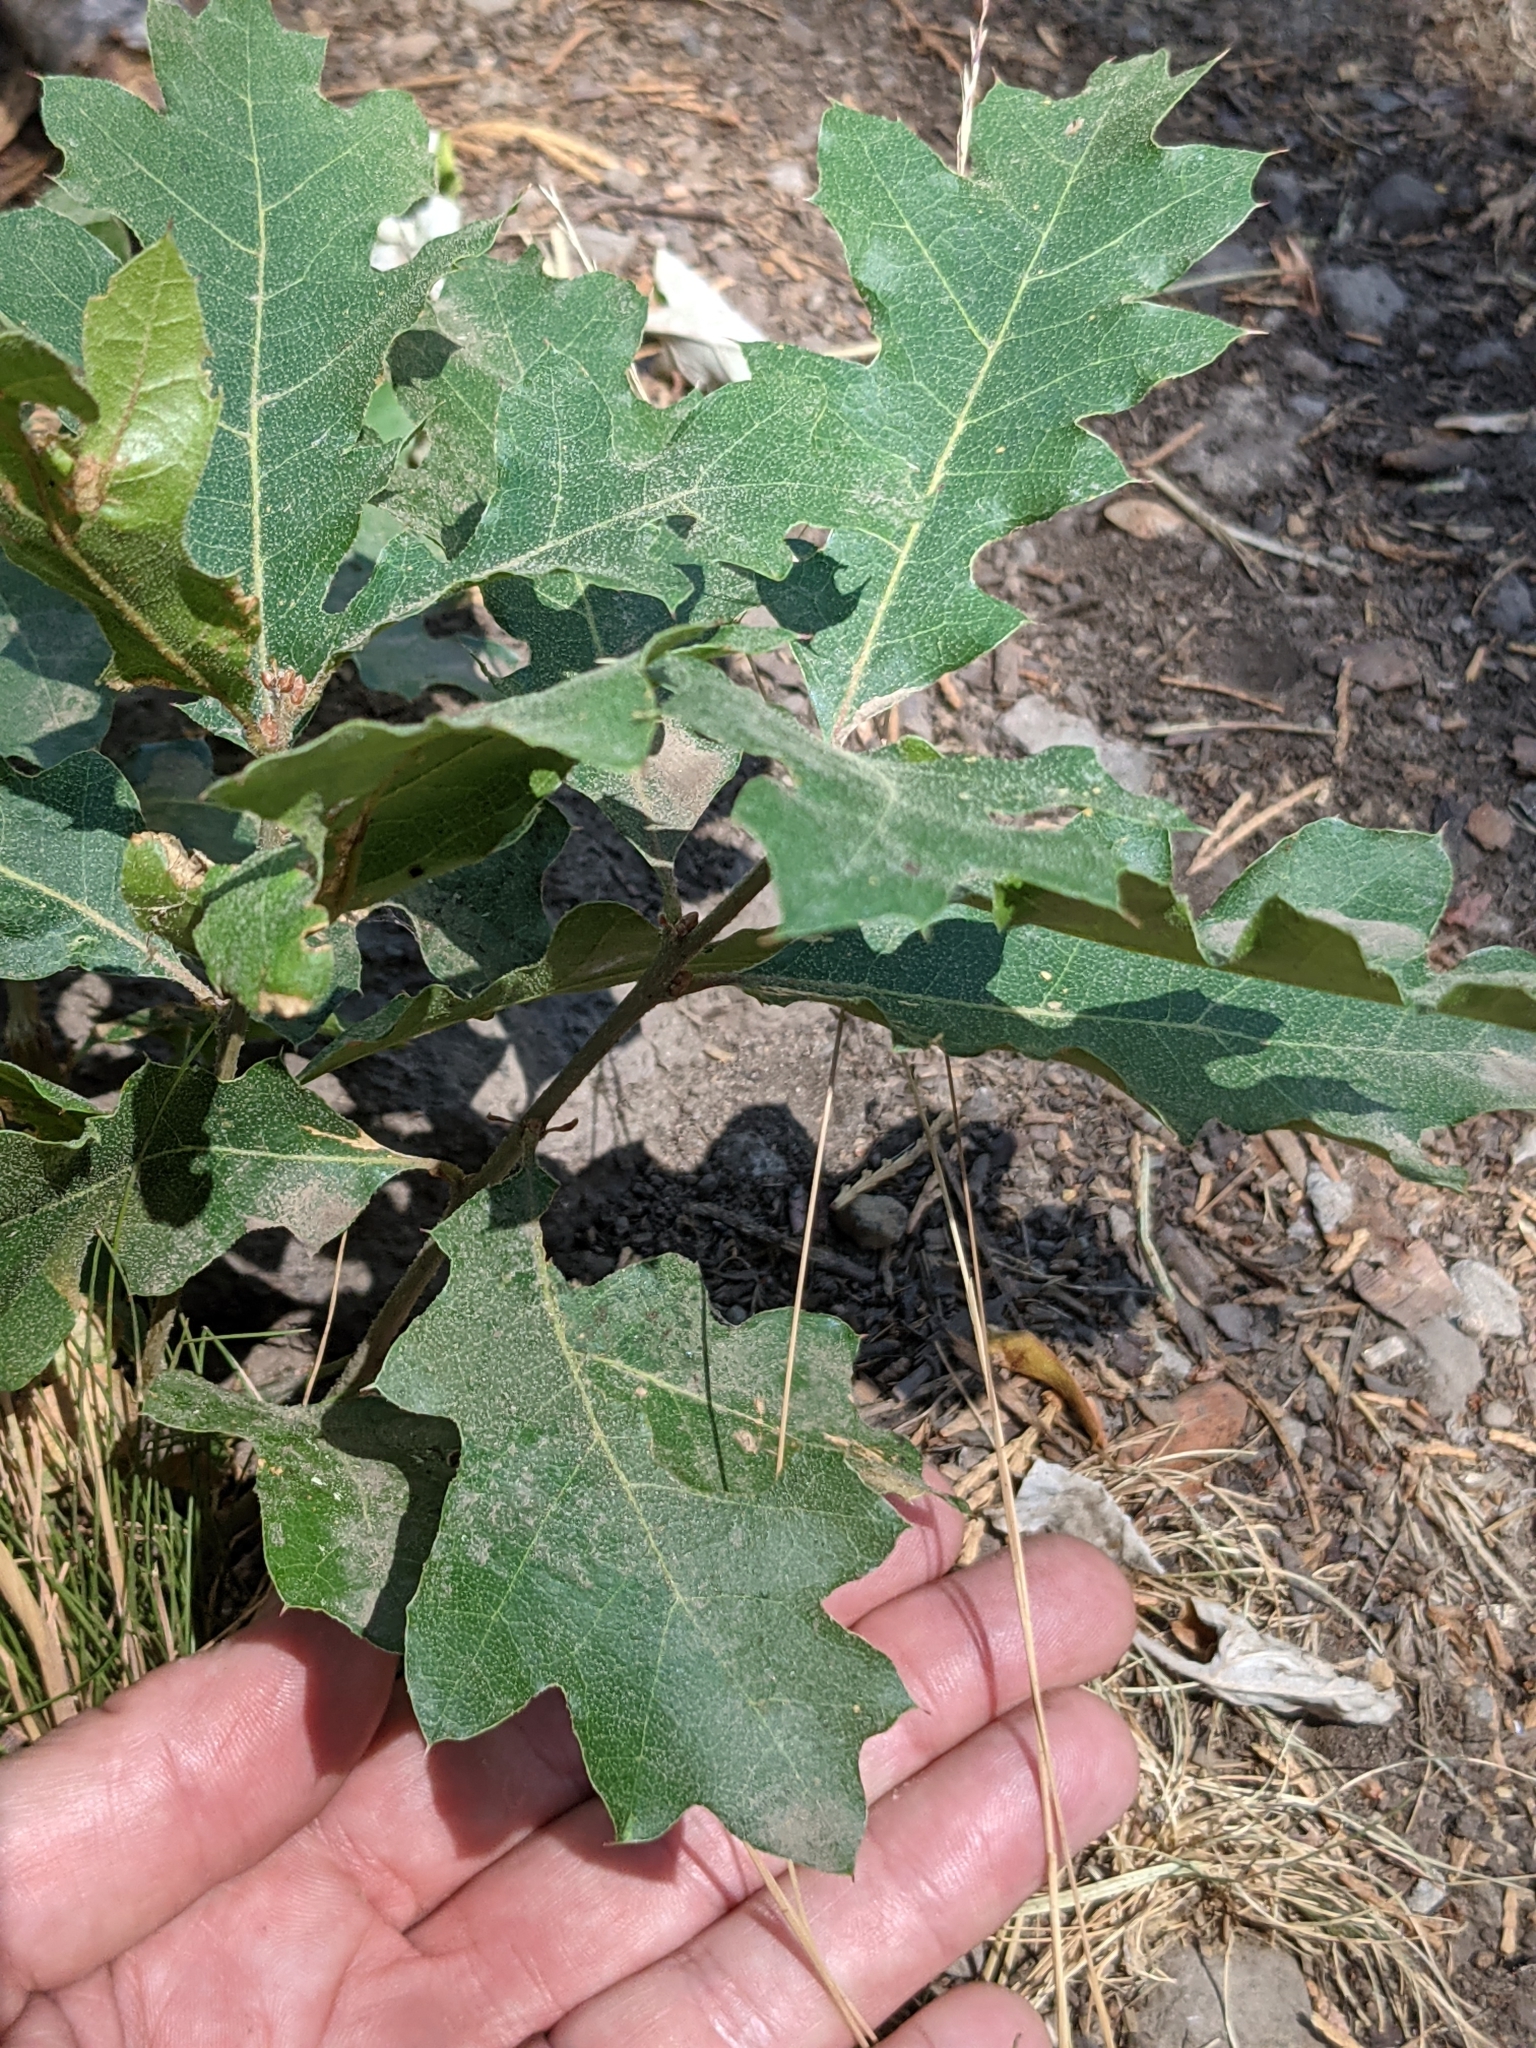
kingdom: Plantae
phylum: Tracheophyta
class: Magnoliopsida
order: Fagales
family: Fagaceae
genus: Quercus
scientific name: Quercus kelloggii
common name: California black oak
